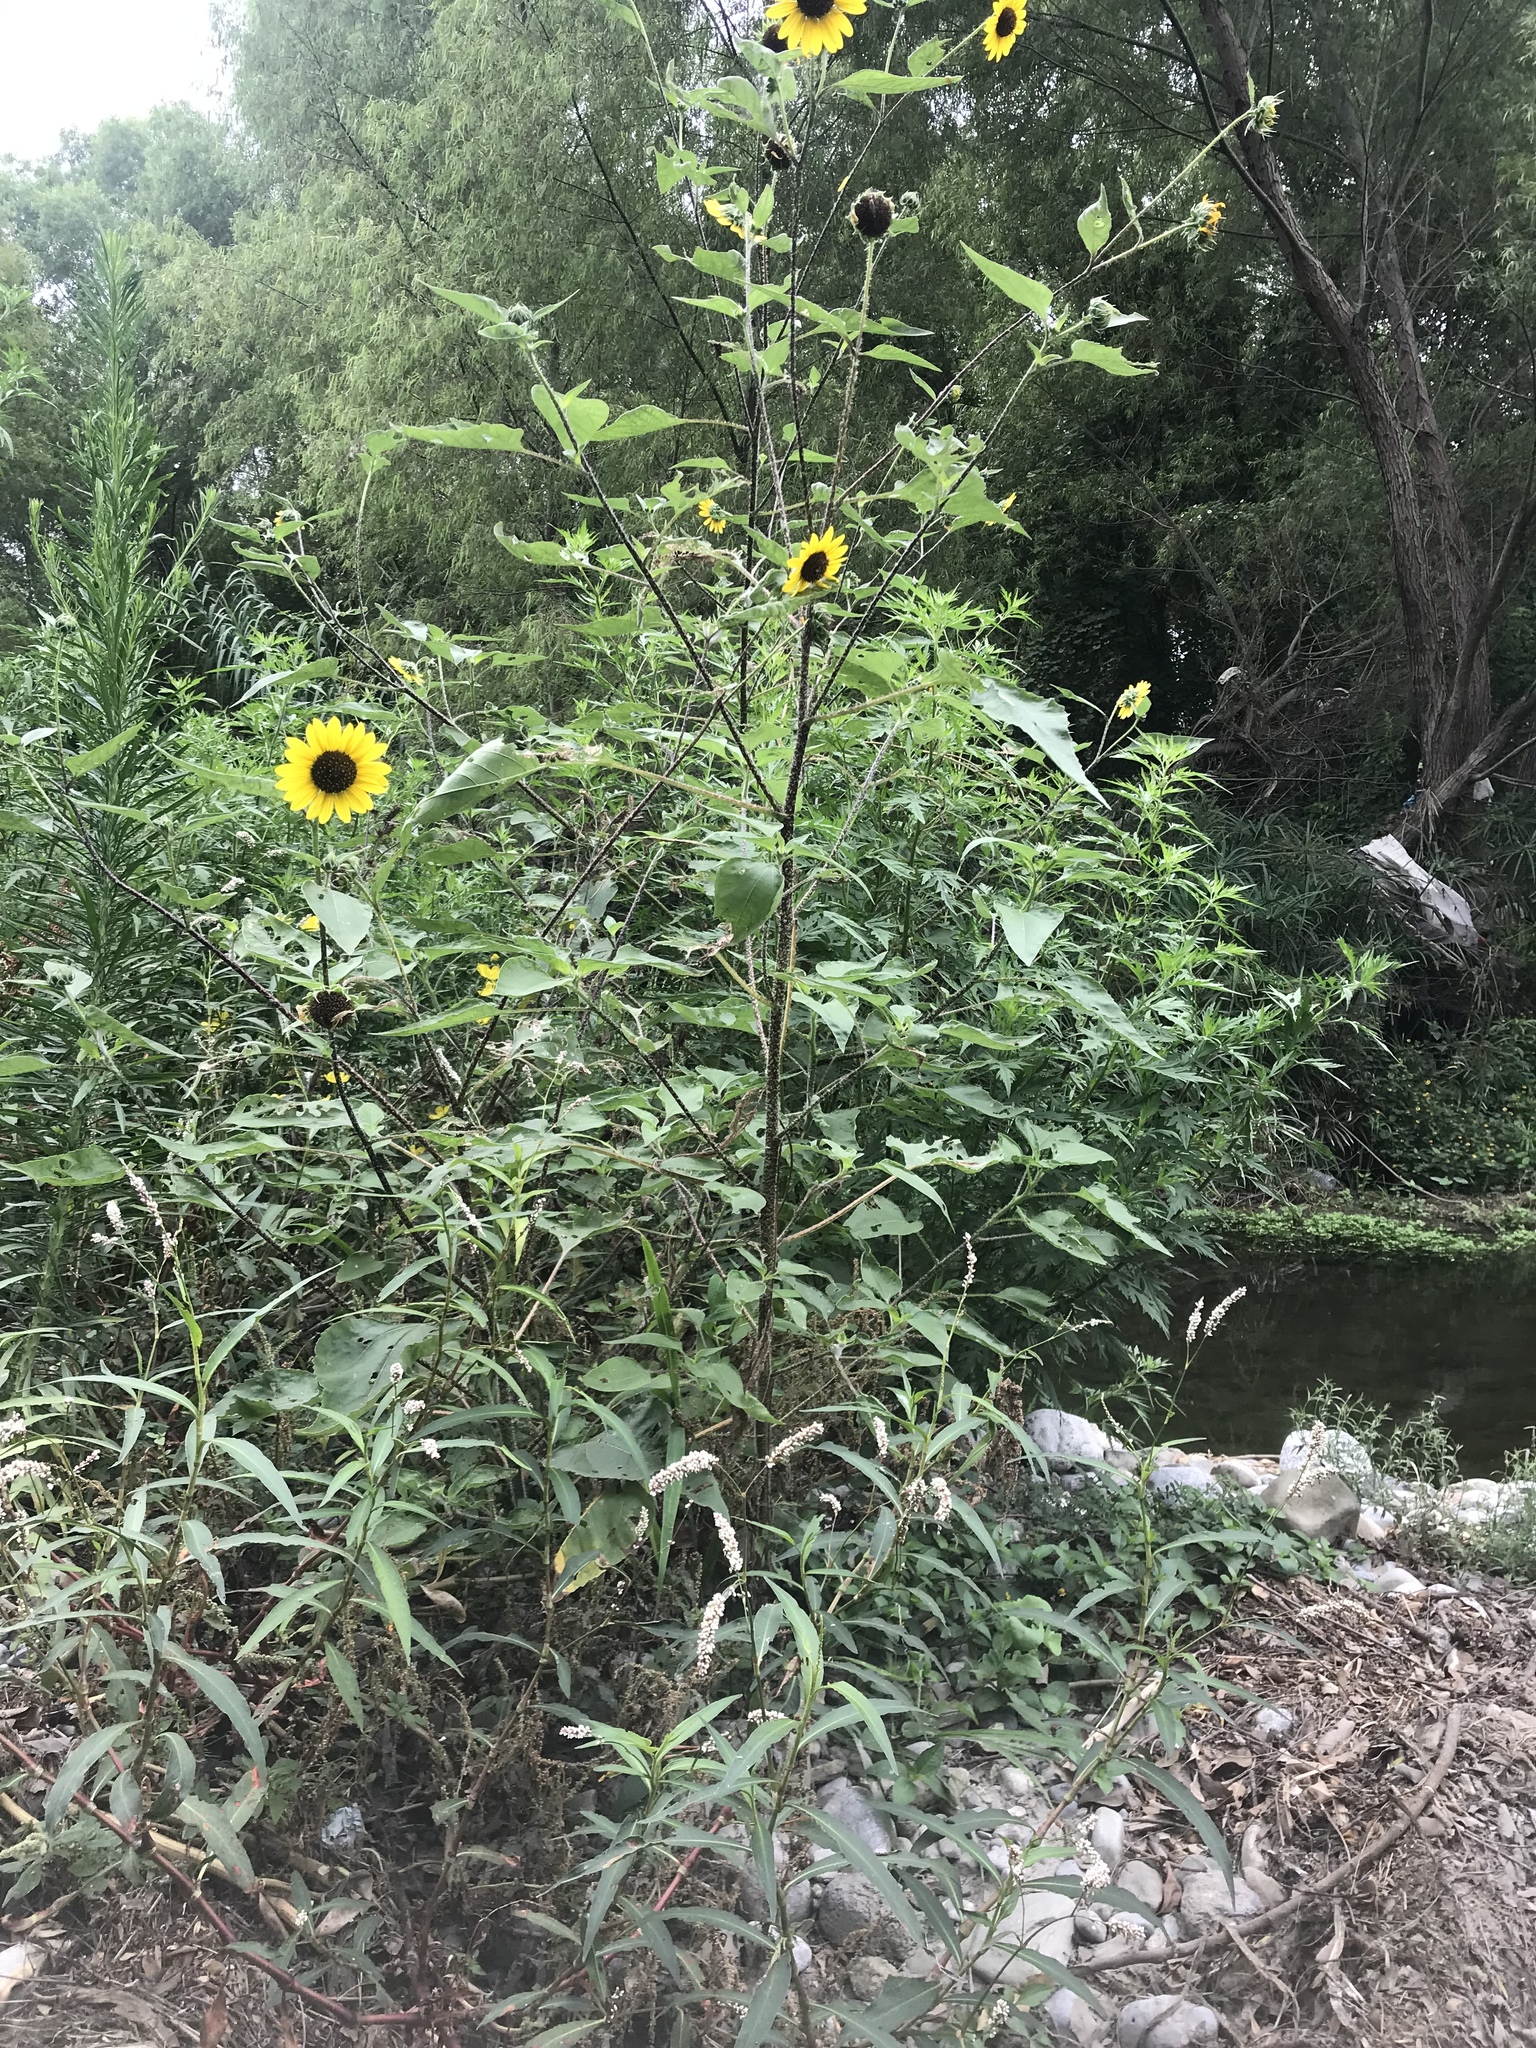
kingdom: Plantae
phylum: Tracheophyta
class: Magnoliopsida
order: Asterales
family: Asteraceae
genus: Helianthus
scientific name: Helianthus annuus
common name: Sunflower
